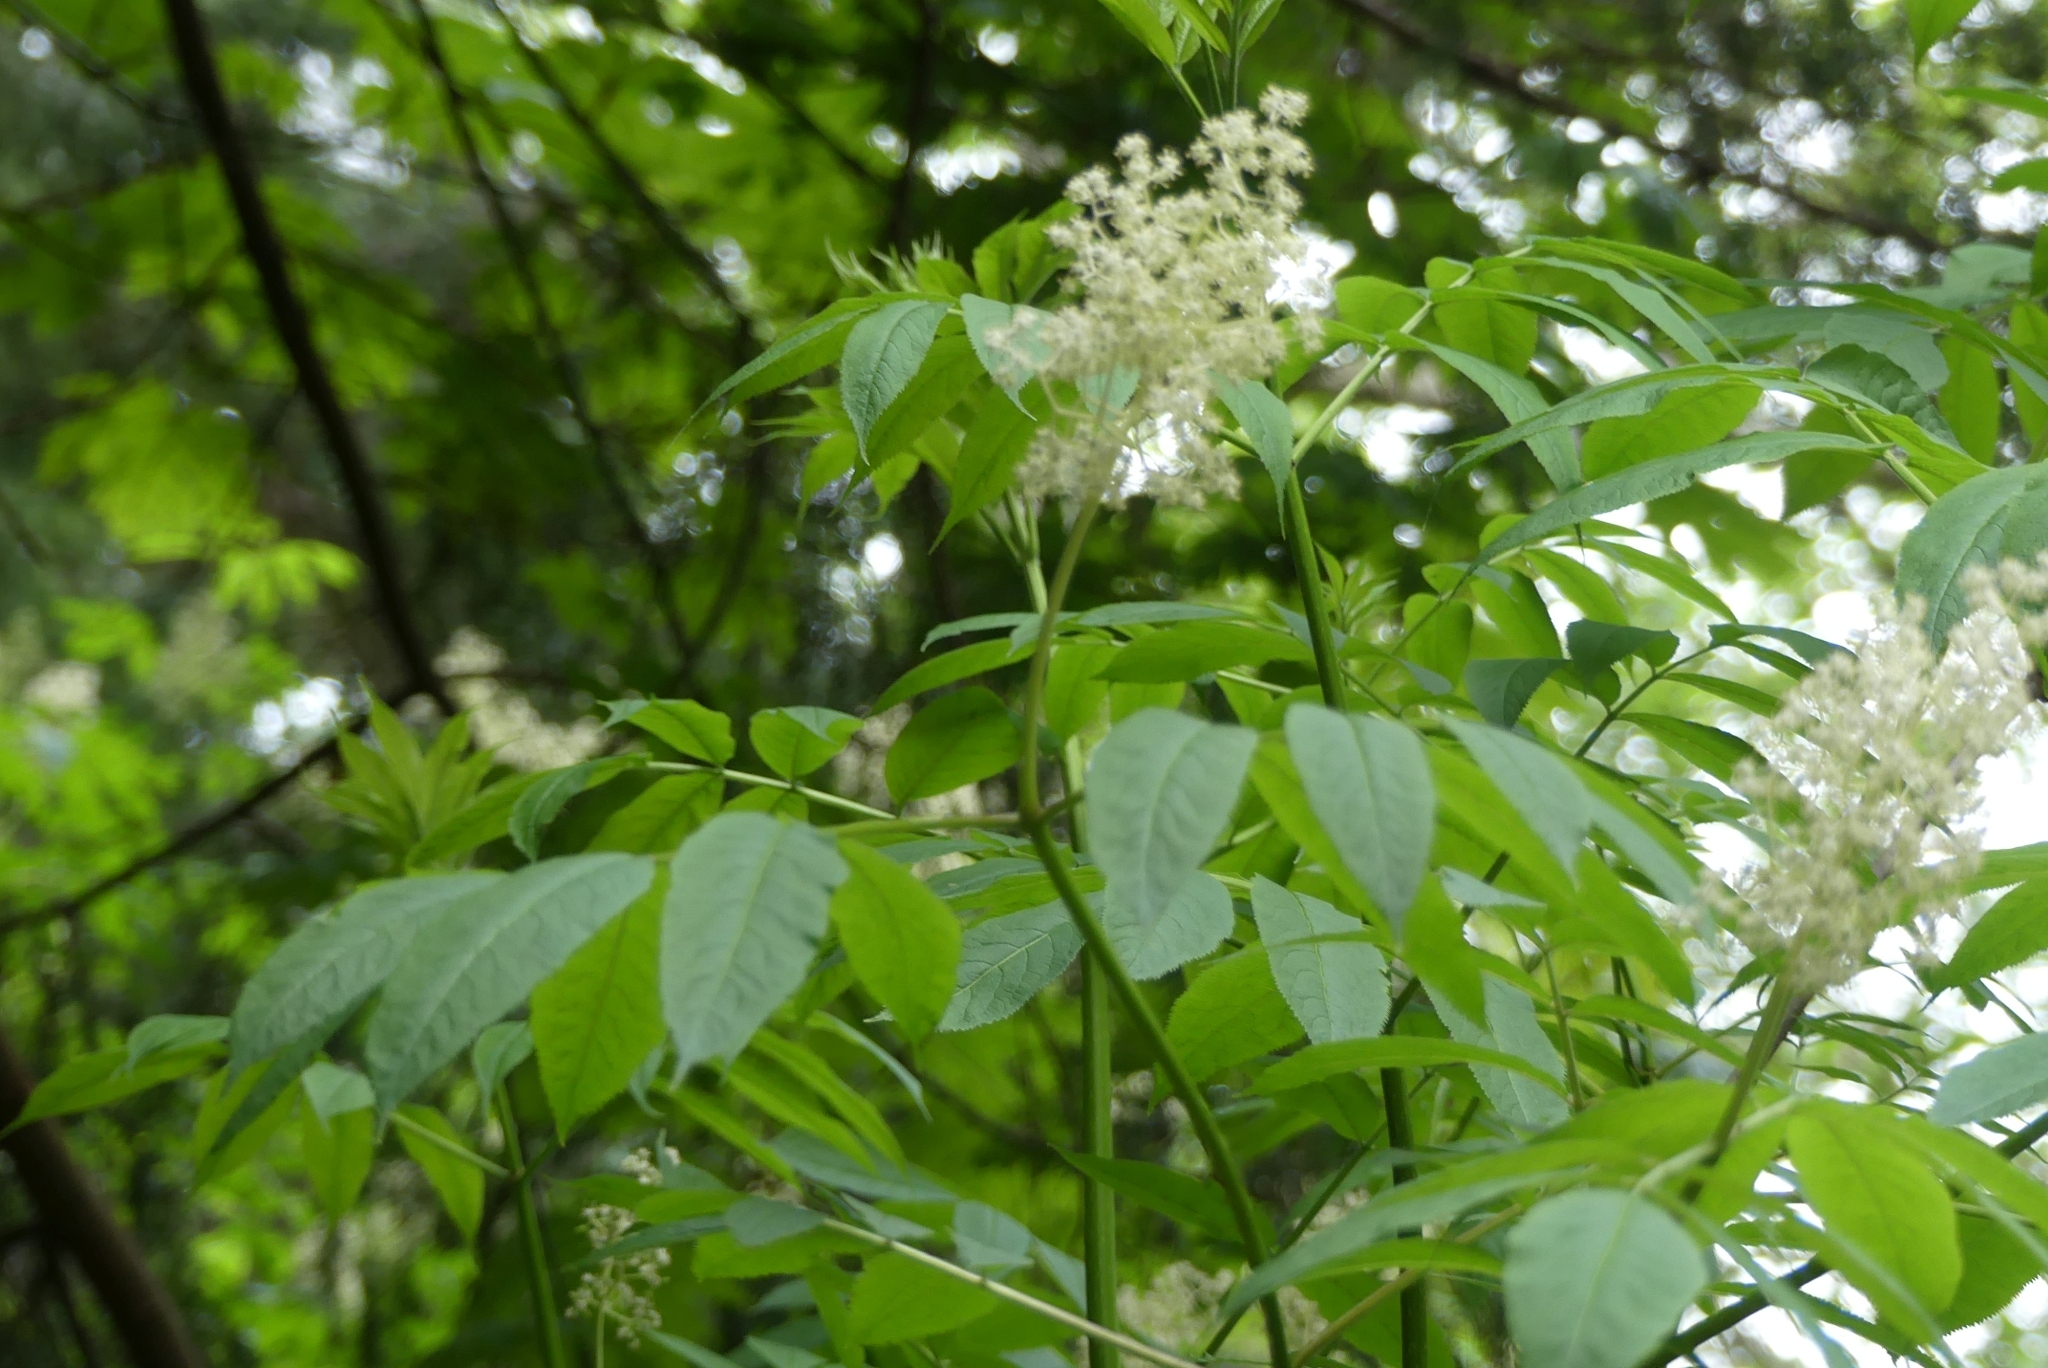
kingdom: Plantae
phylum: Tracheophyta
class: Magnoliopsida
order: Dipsacales
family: Viburnaceae
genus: Sambucus
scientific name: Sambucus racemosa
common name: Red-berried elder
